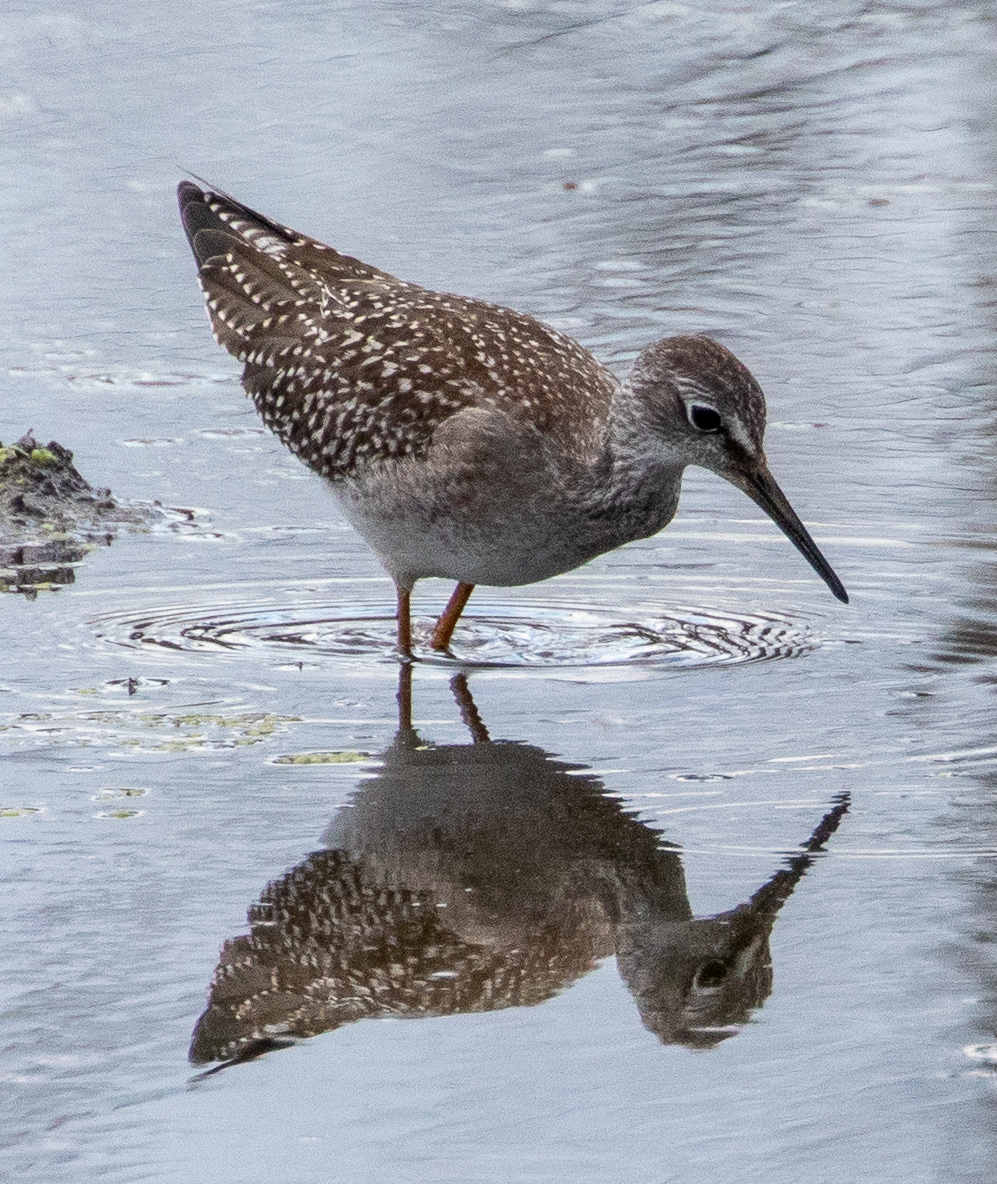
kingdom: Animalia
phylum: Chordata
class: Aves
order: Charadriiformes
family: Scolopacidae
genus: Tringa
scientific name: Tringa flavipes
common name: Lesser yellowlegs
